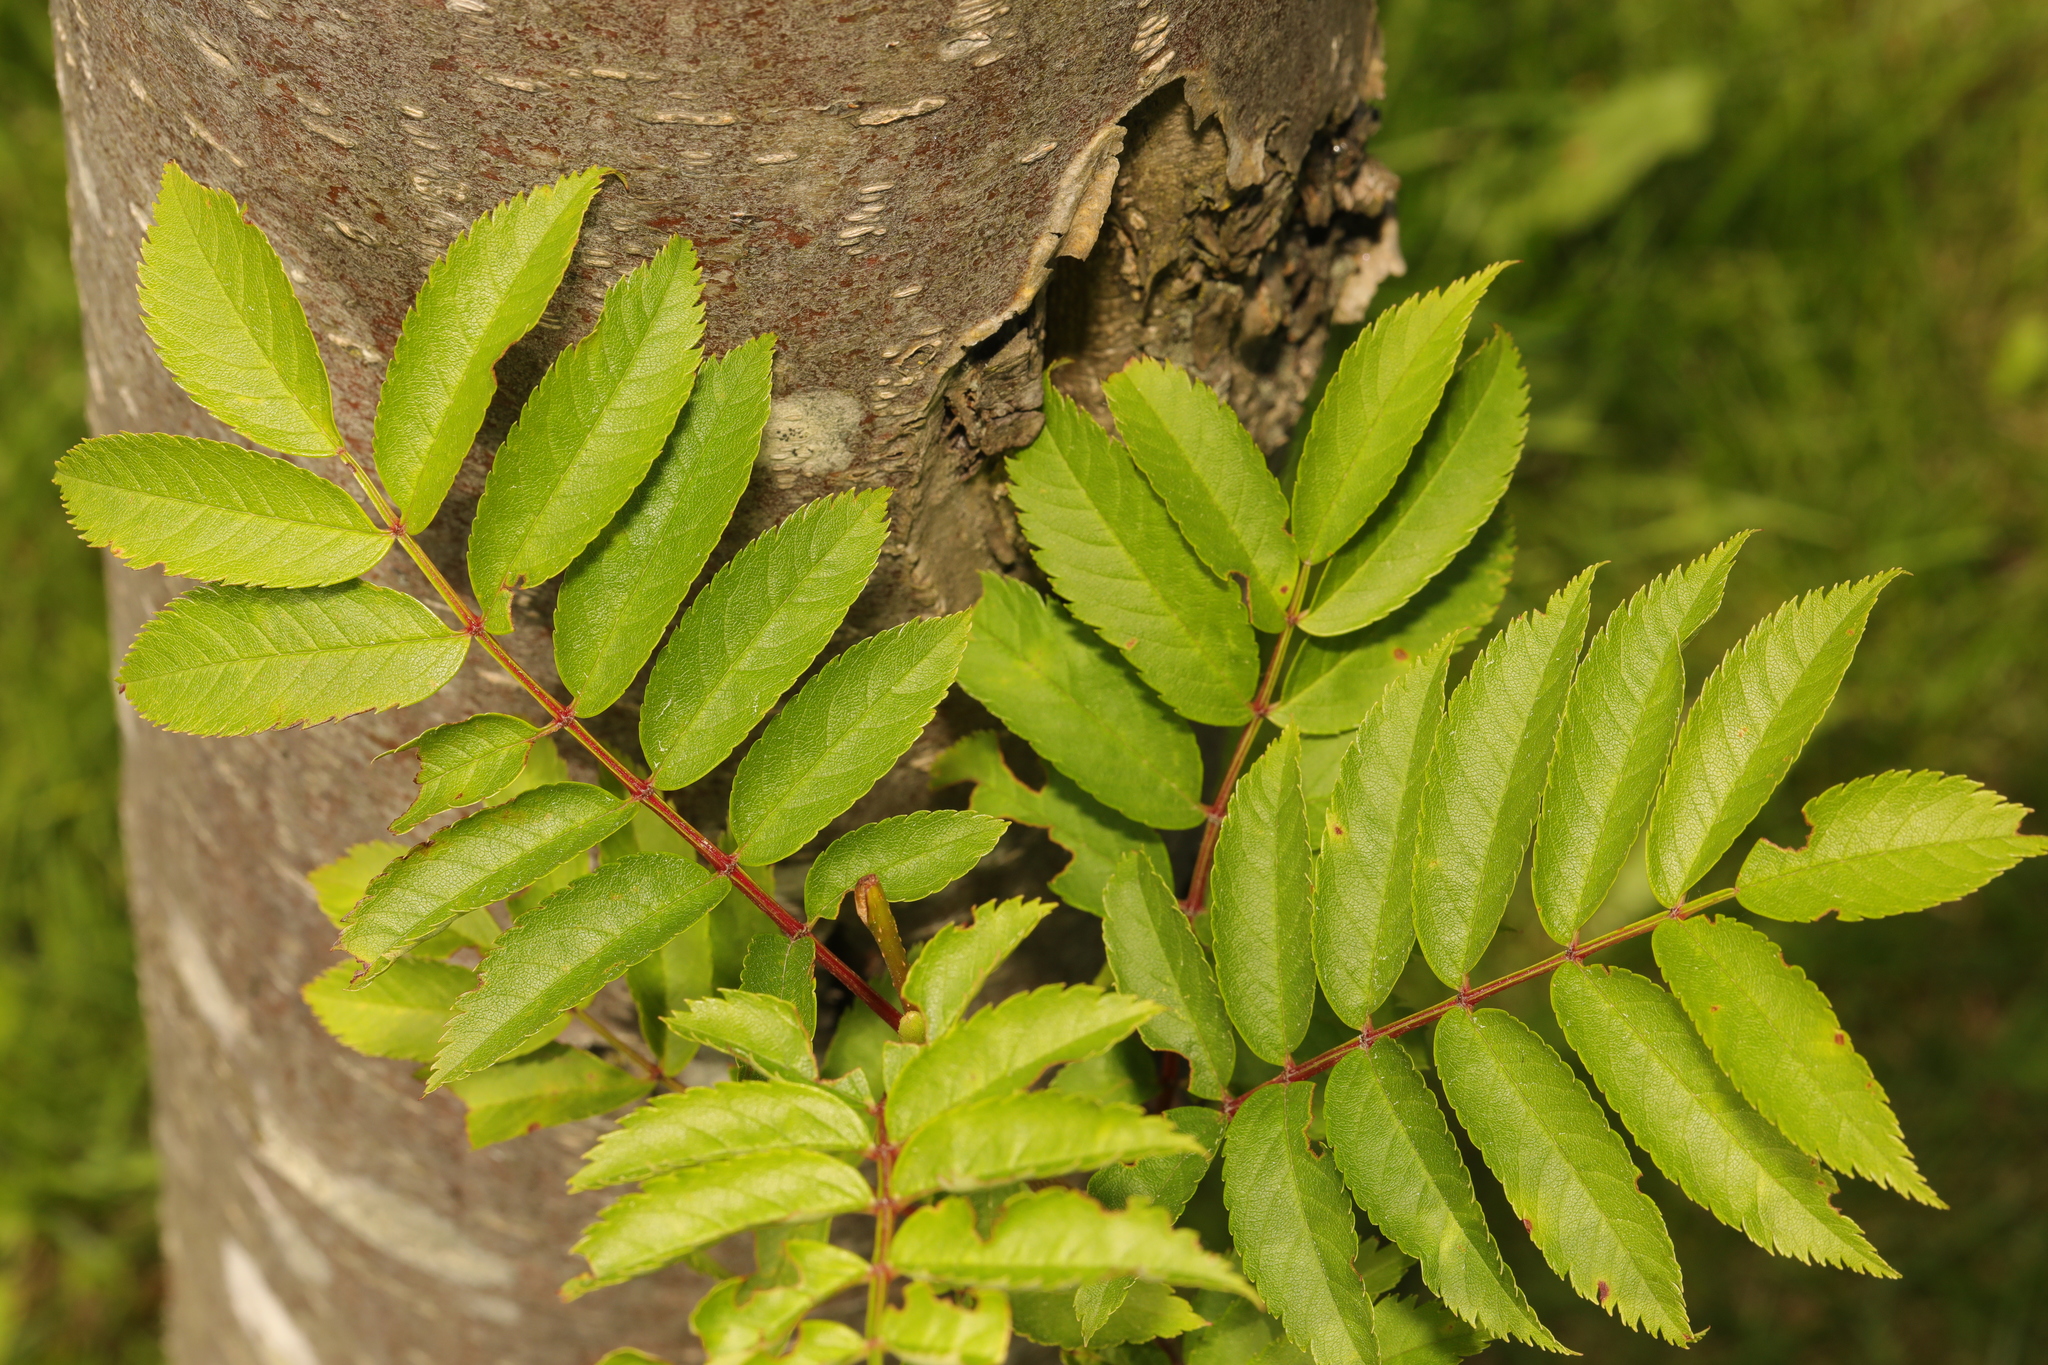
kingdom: Plantae
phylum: Tracheophyta
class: Magnoliopsida
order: Rosales
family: Rosaceae
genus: Sorbus
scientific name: Sorbus aucuparia
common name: Rowan
